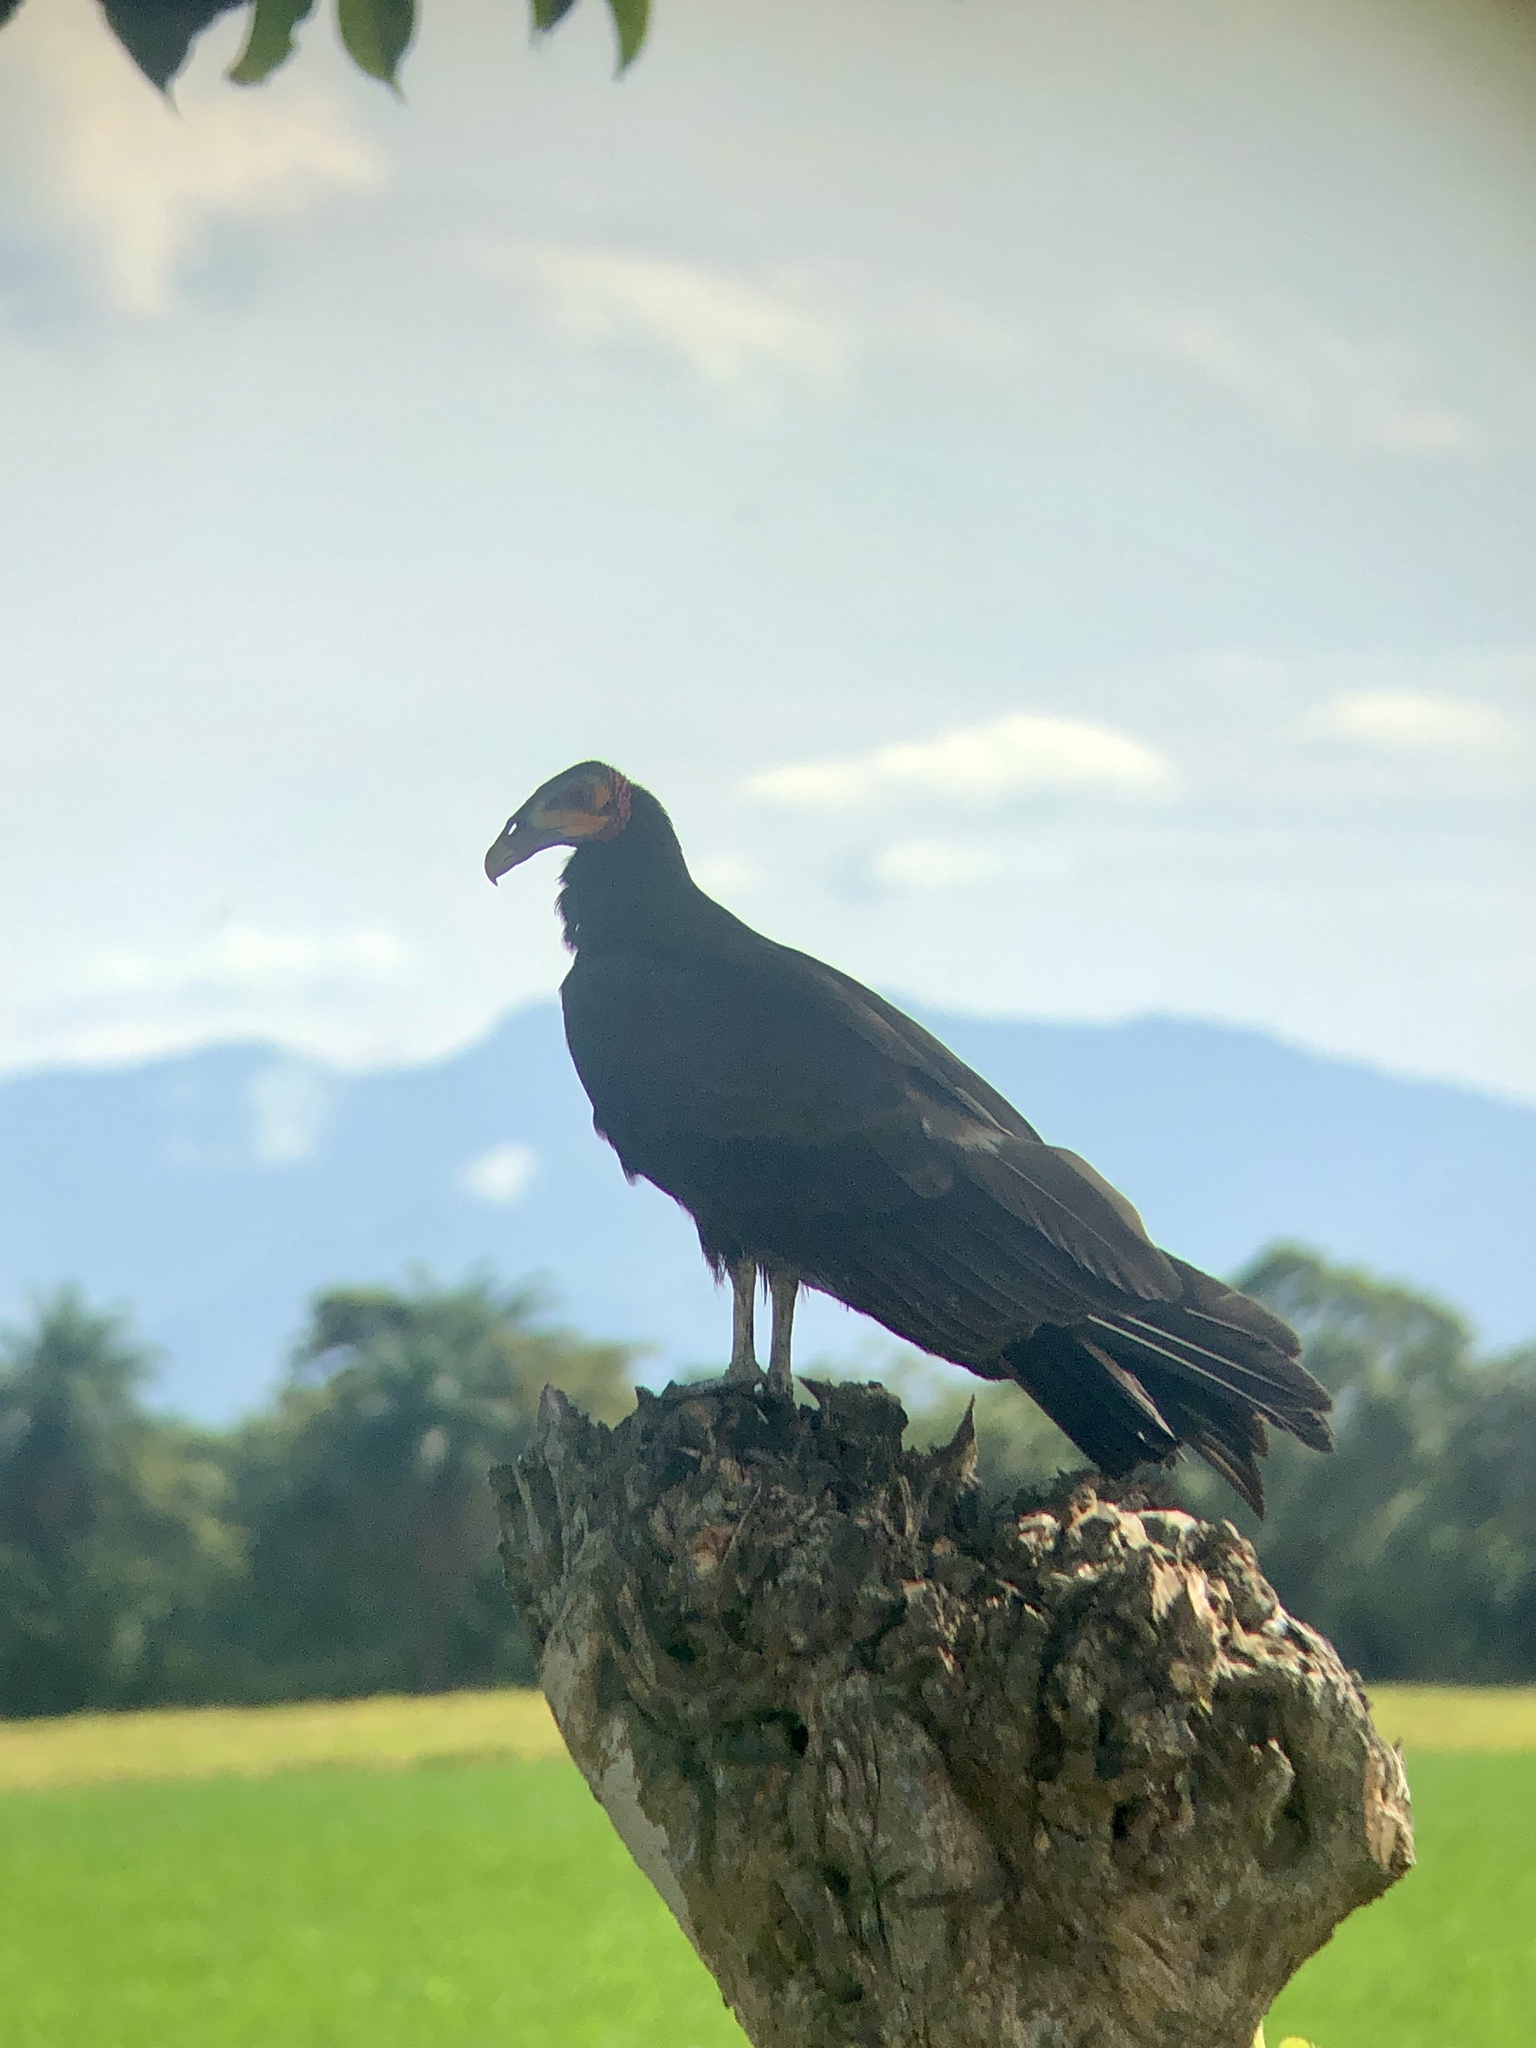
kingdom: Animalia
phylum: Chordata
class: Aves
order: Accipitriformes
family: Cathartidae
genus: Cathartes
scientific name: Cathartes burrovianus
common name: Lesser yellow-headed vulture
